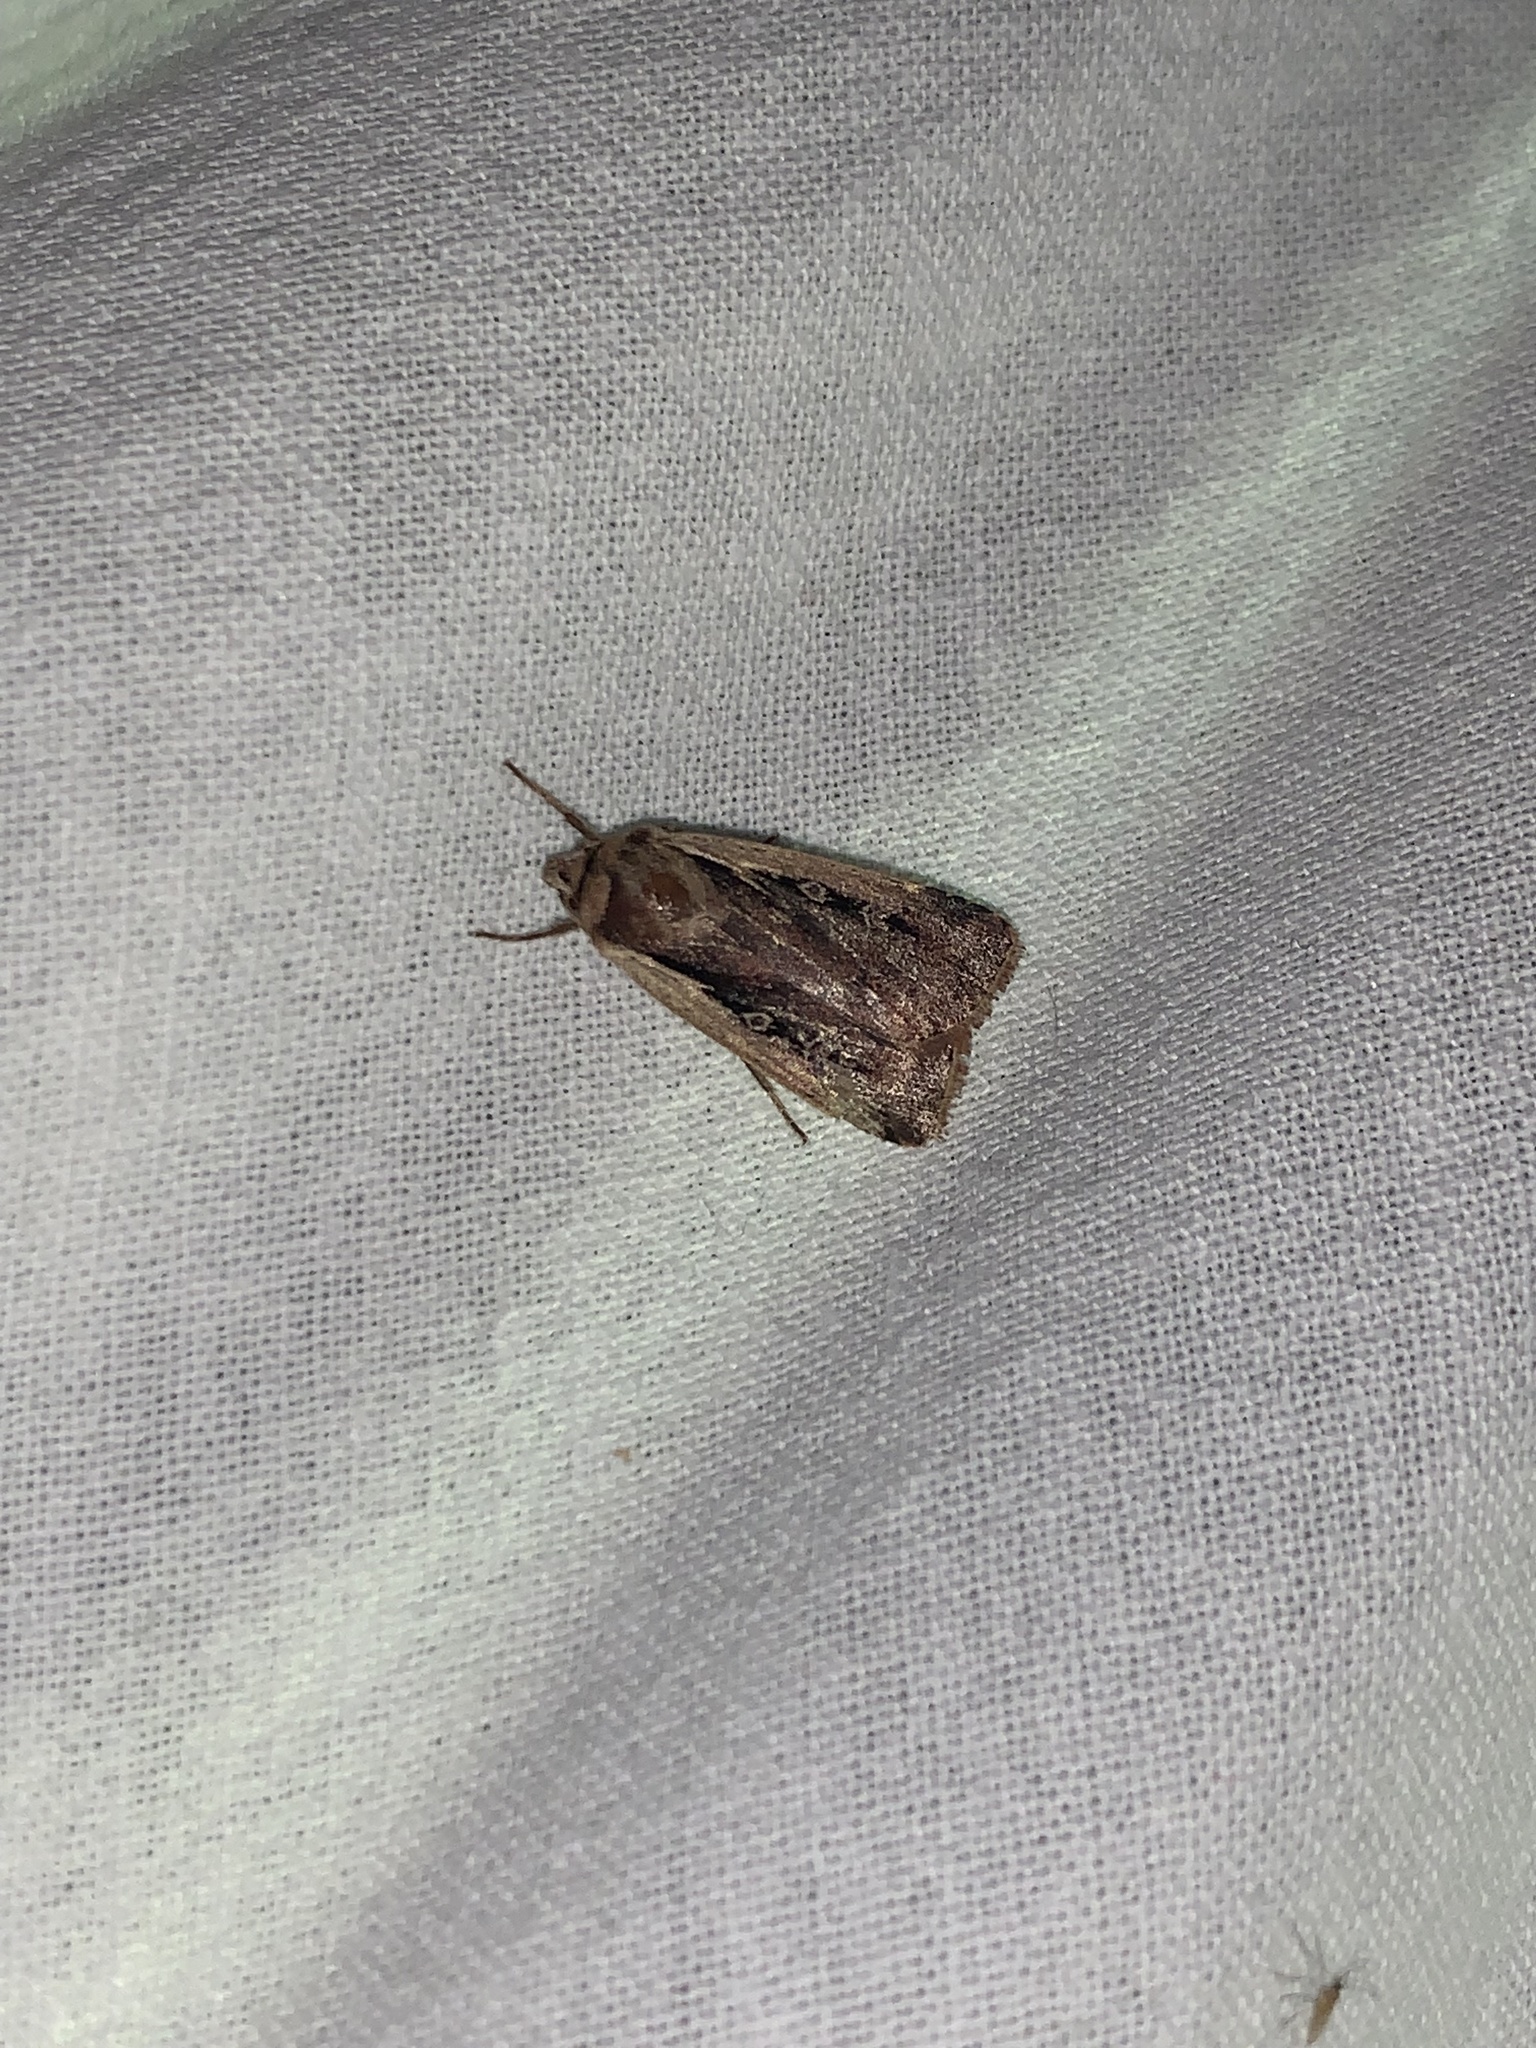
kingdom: Animalia
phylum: Arthropoda
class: Insecta
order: Lepidoptera
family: Noctuidae
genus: Ochropleura
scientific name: Ochropleura plecta
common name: Flame shoulder
